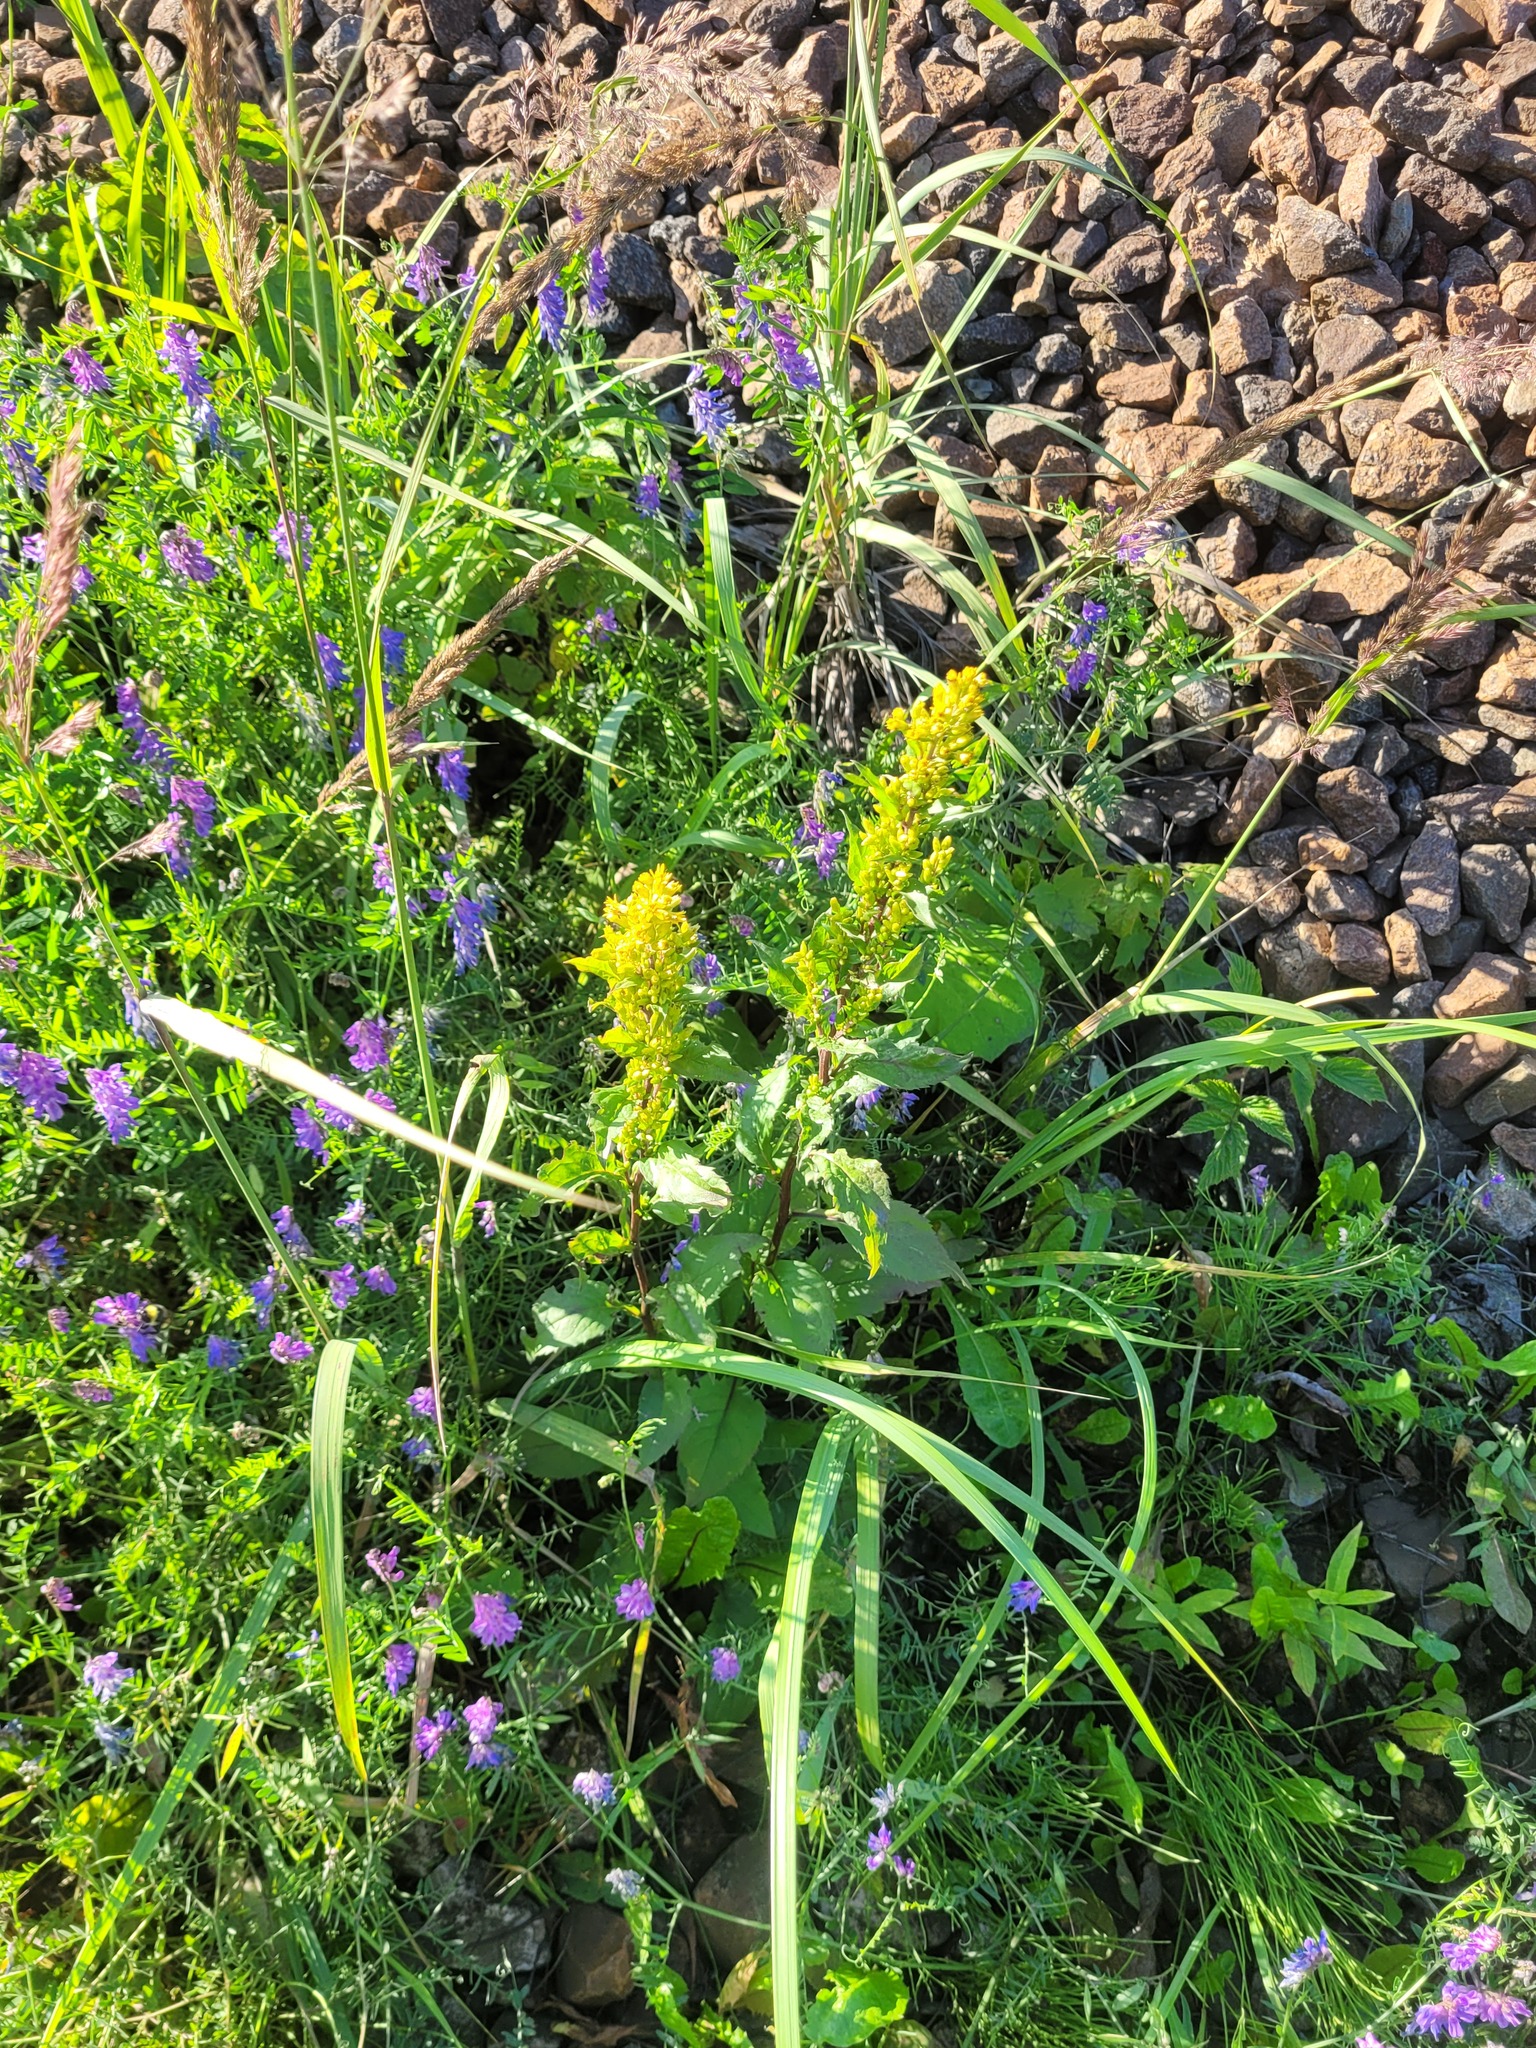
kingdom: Plantae
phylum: Tracheophyta
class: Magnoliopsida
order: Asterales
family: Asteraceae
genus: Solidago
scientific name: Solidago virgaurea
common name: Goldenrod
